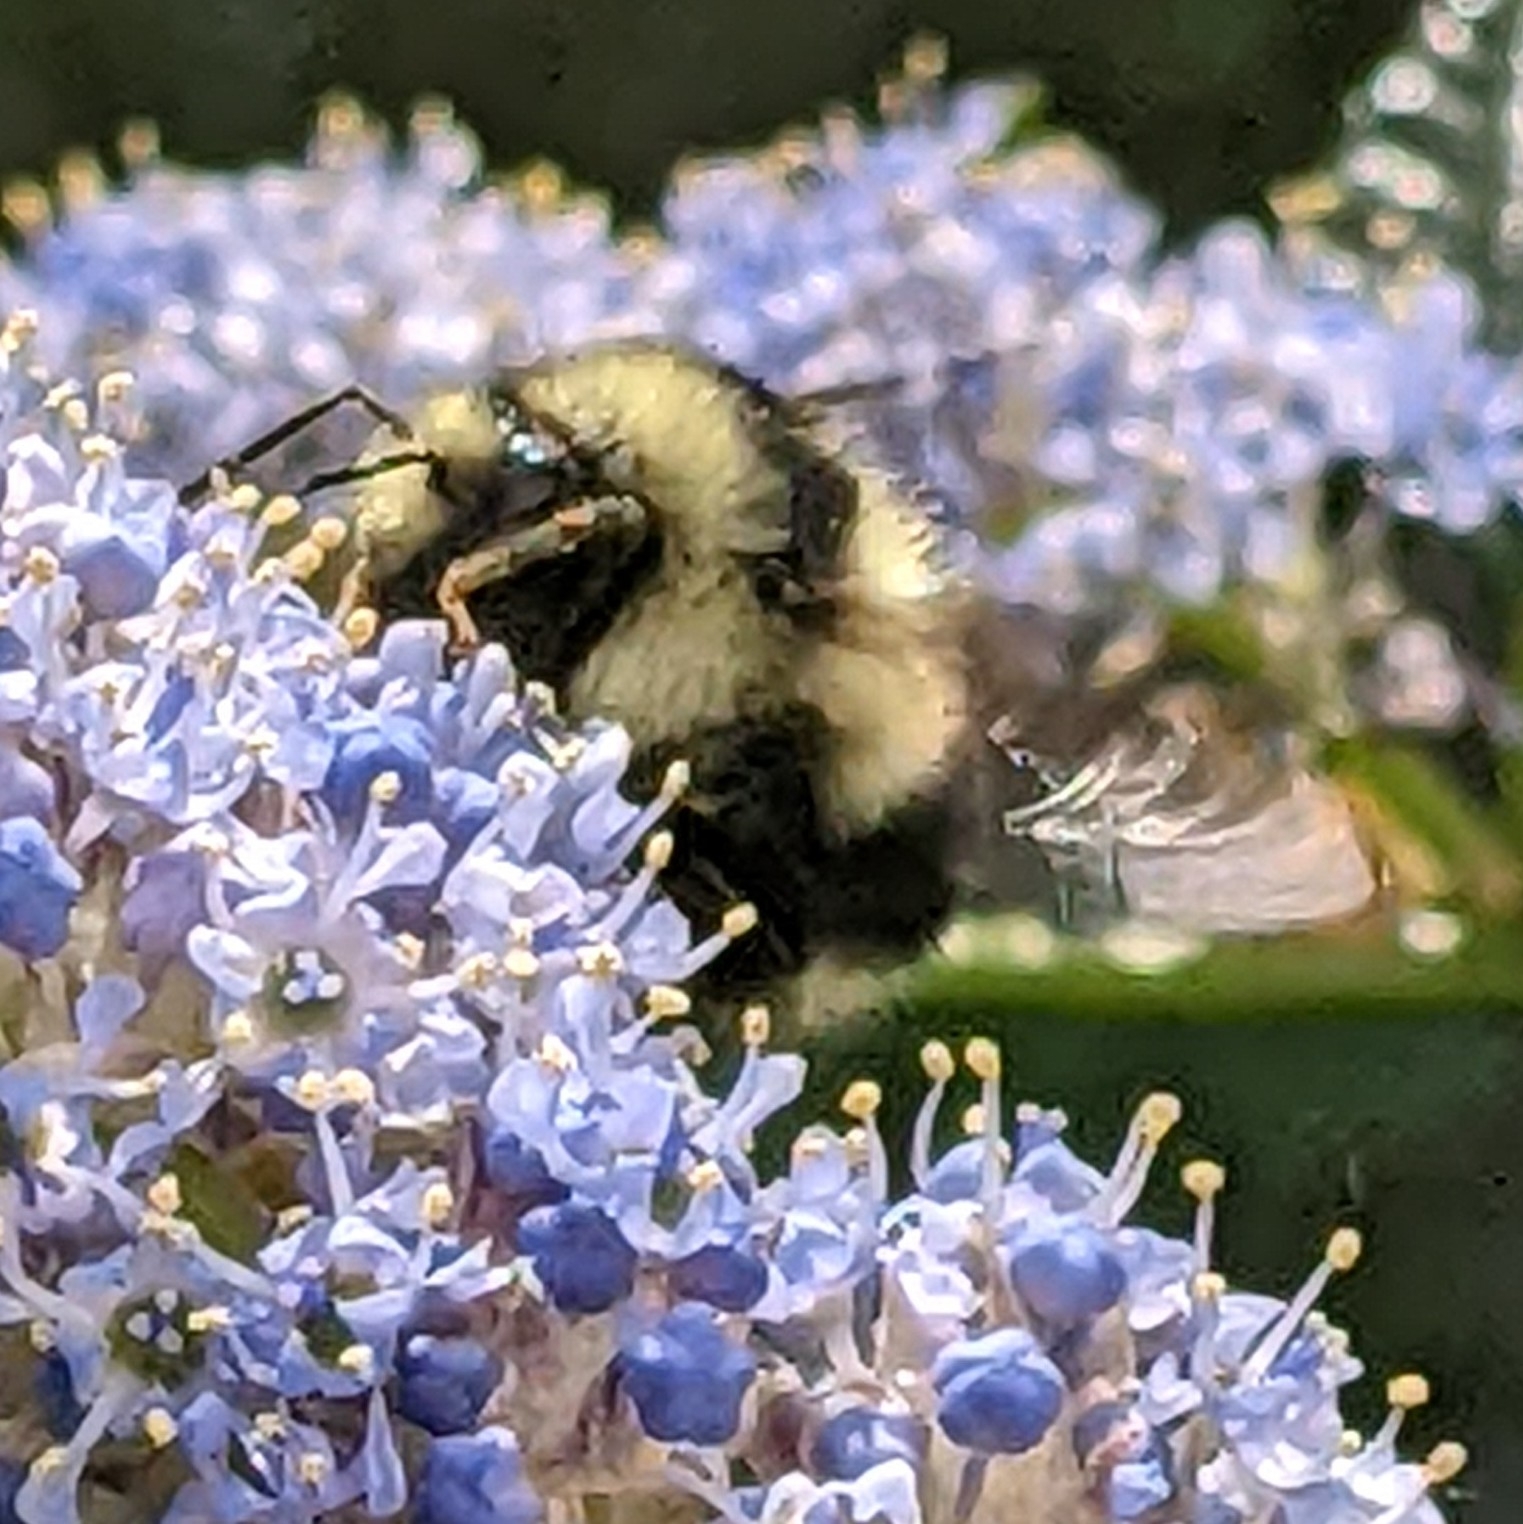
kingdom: Animalia
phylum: Arthropoda
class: Insecta
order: Hymenoptera
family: Apidae
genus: Bombus
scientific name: Bombus melanopygus
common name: Black tail bumble bee
